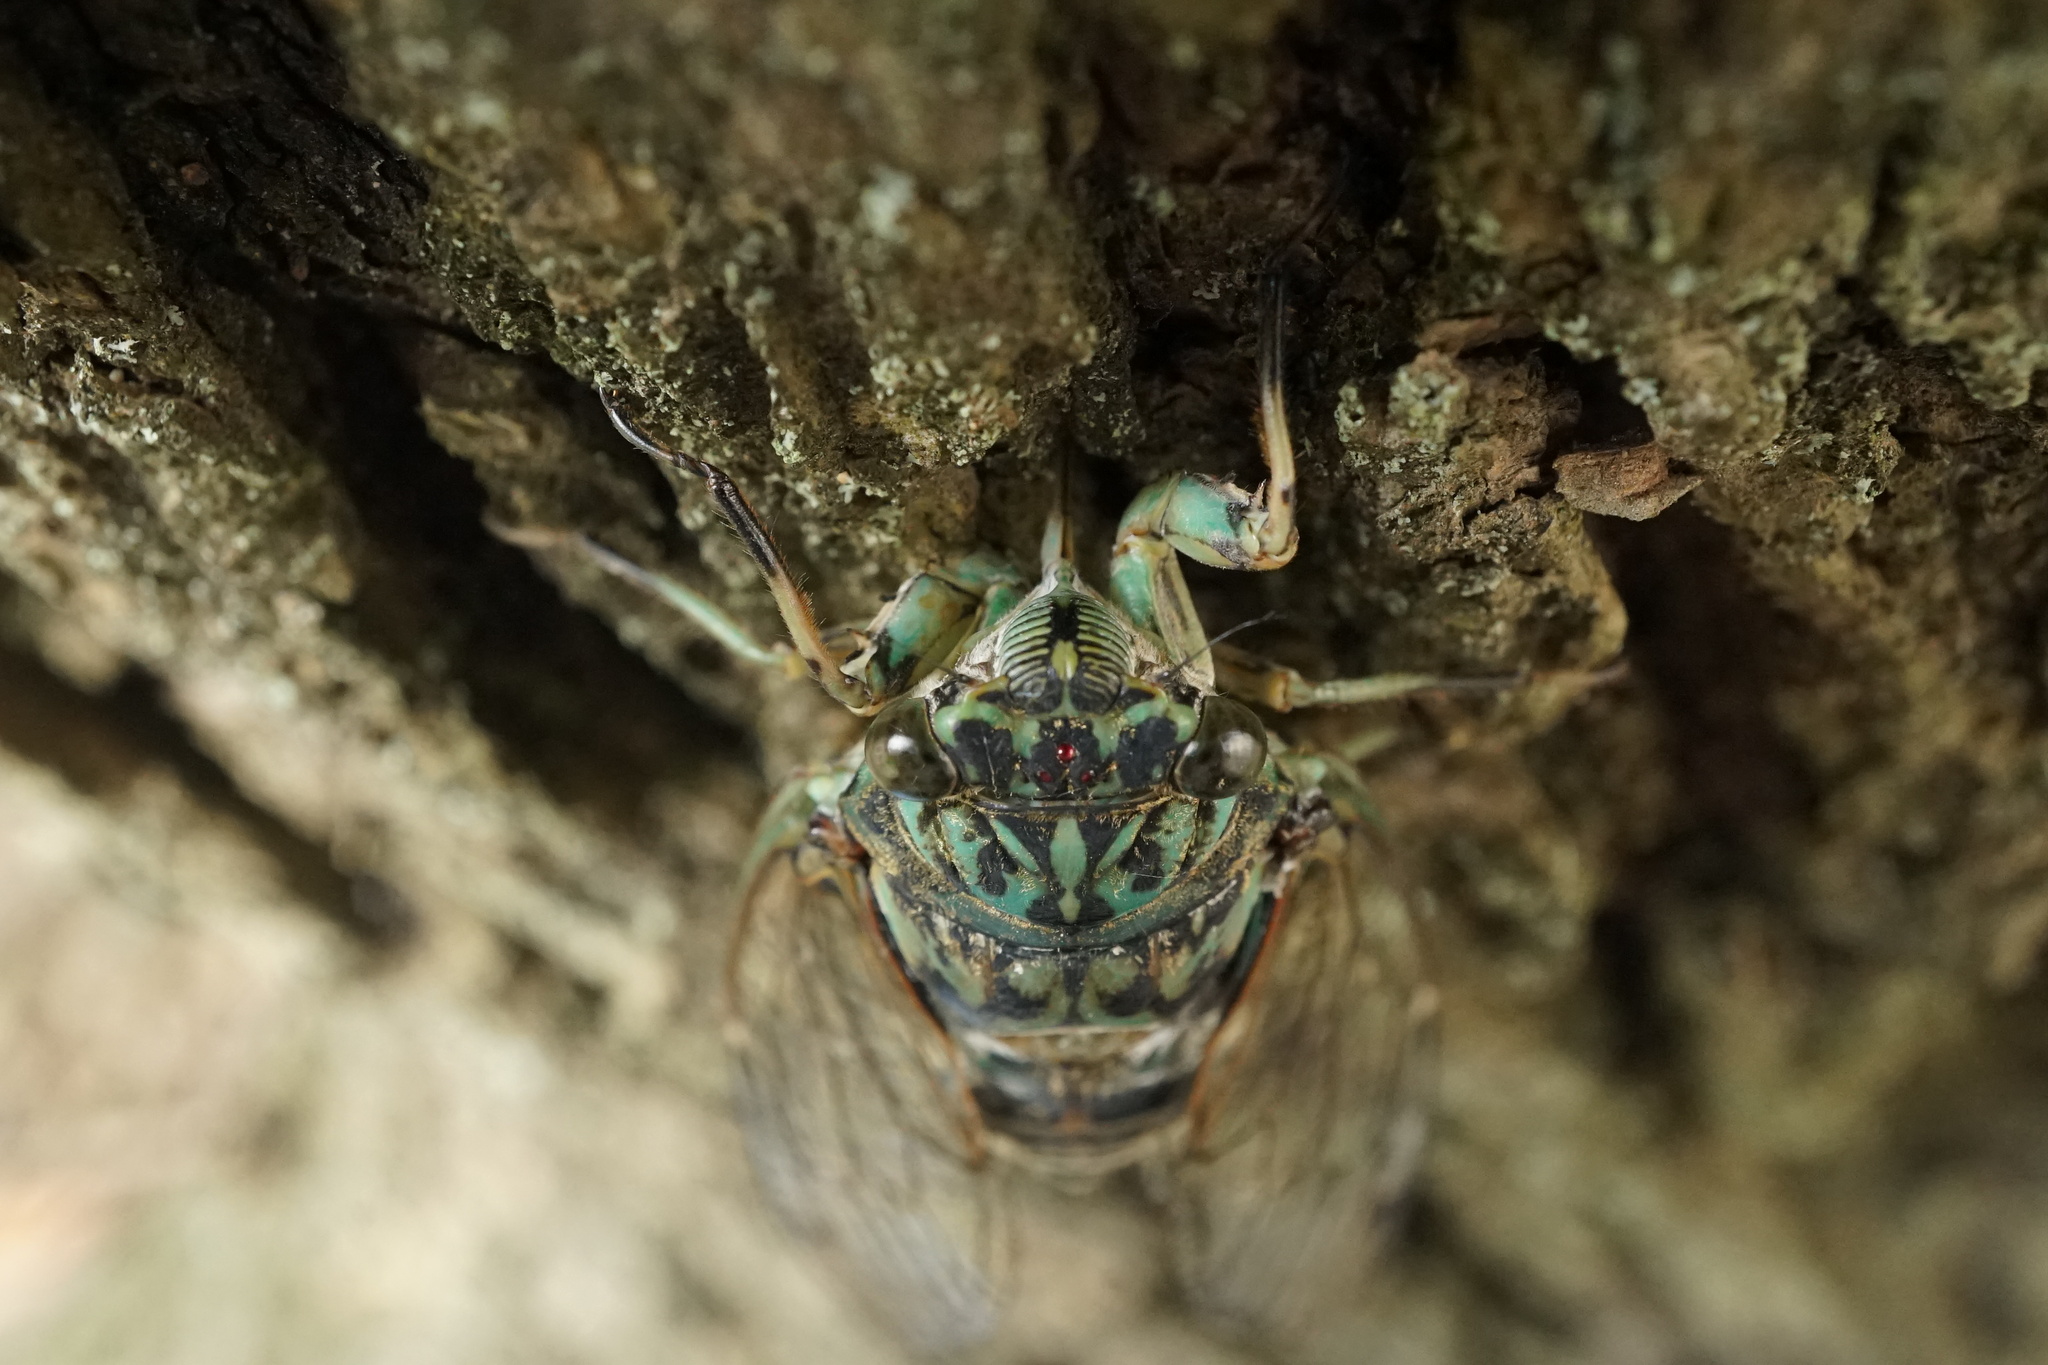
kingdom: Animalia
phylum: Arthropoda
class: Insecta
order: Hemiptera
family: Cicadidae
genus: Hyalessa
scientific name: Hyalessa maculaticollis
